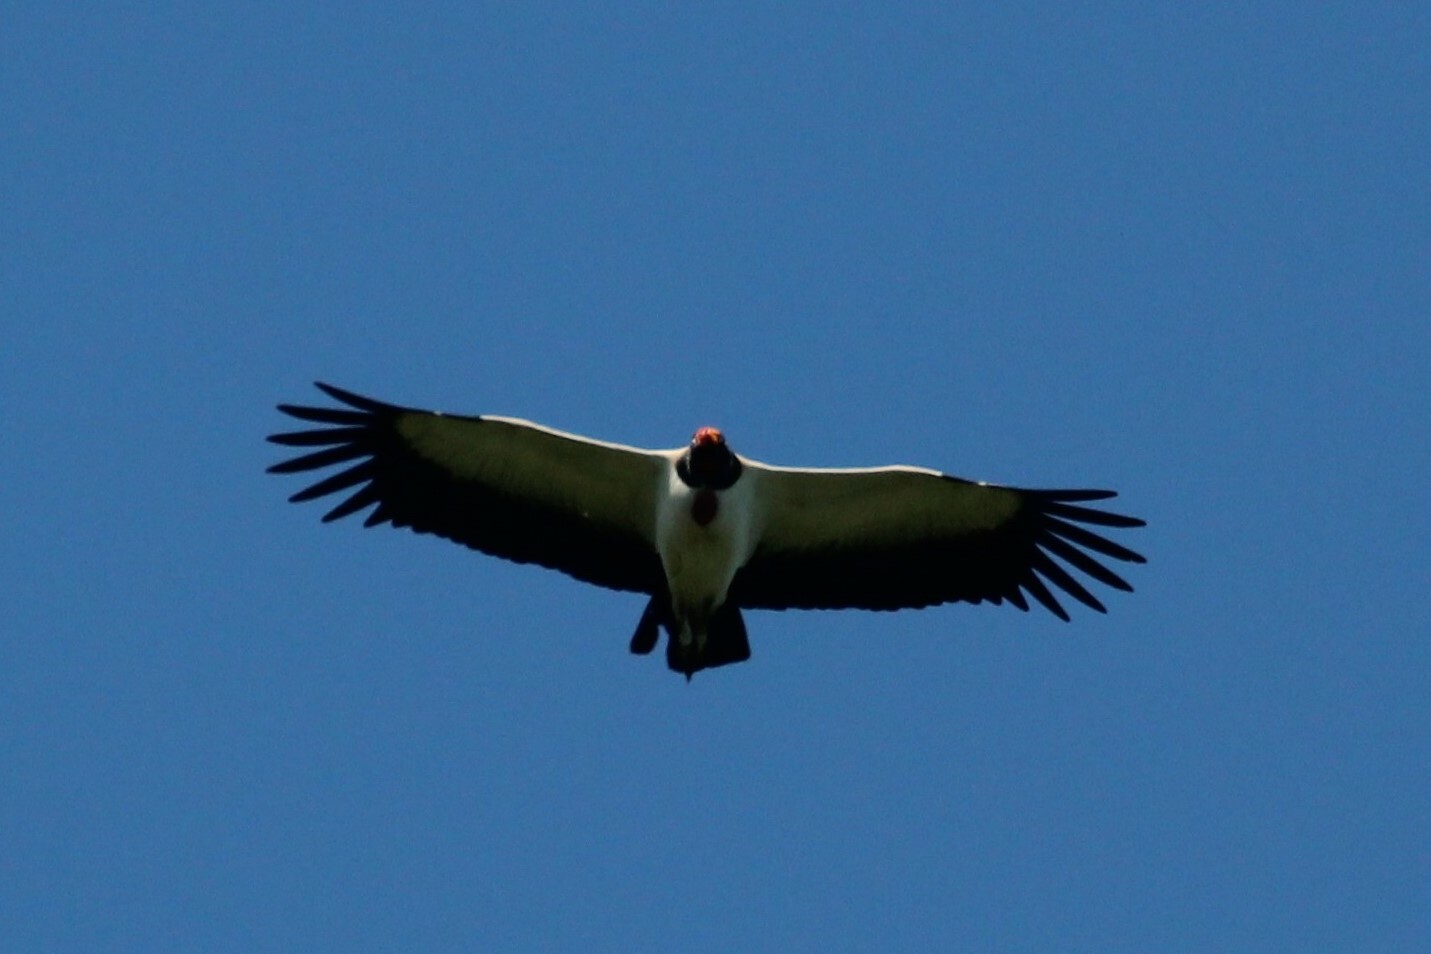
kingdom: Animalia
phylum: Chordata
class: Aves
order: Accipitriformes
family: Cathartidae
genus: Sarcoramphus
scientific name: Sarcoramphus papa
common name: King vulture
